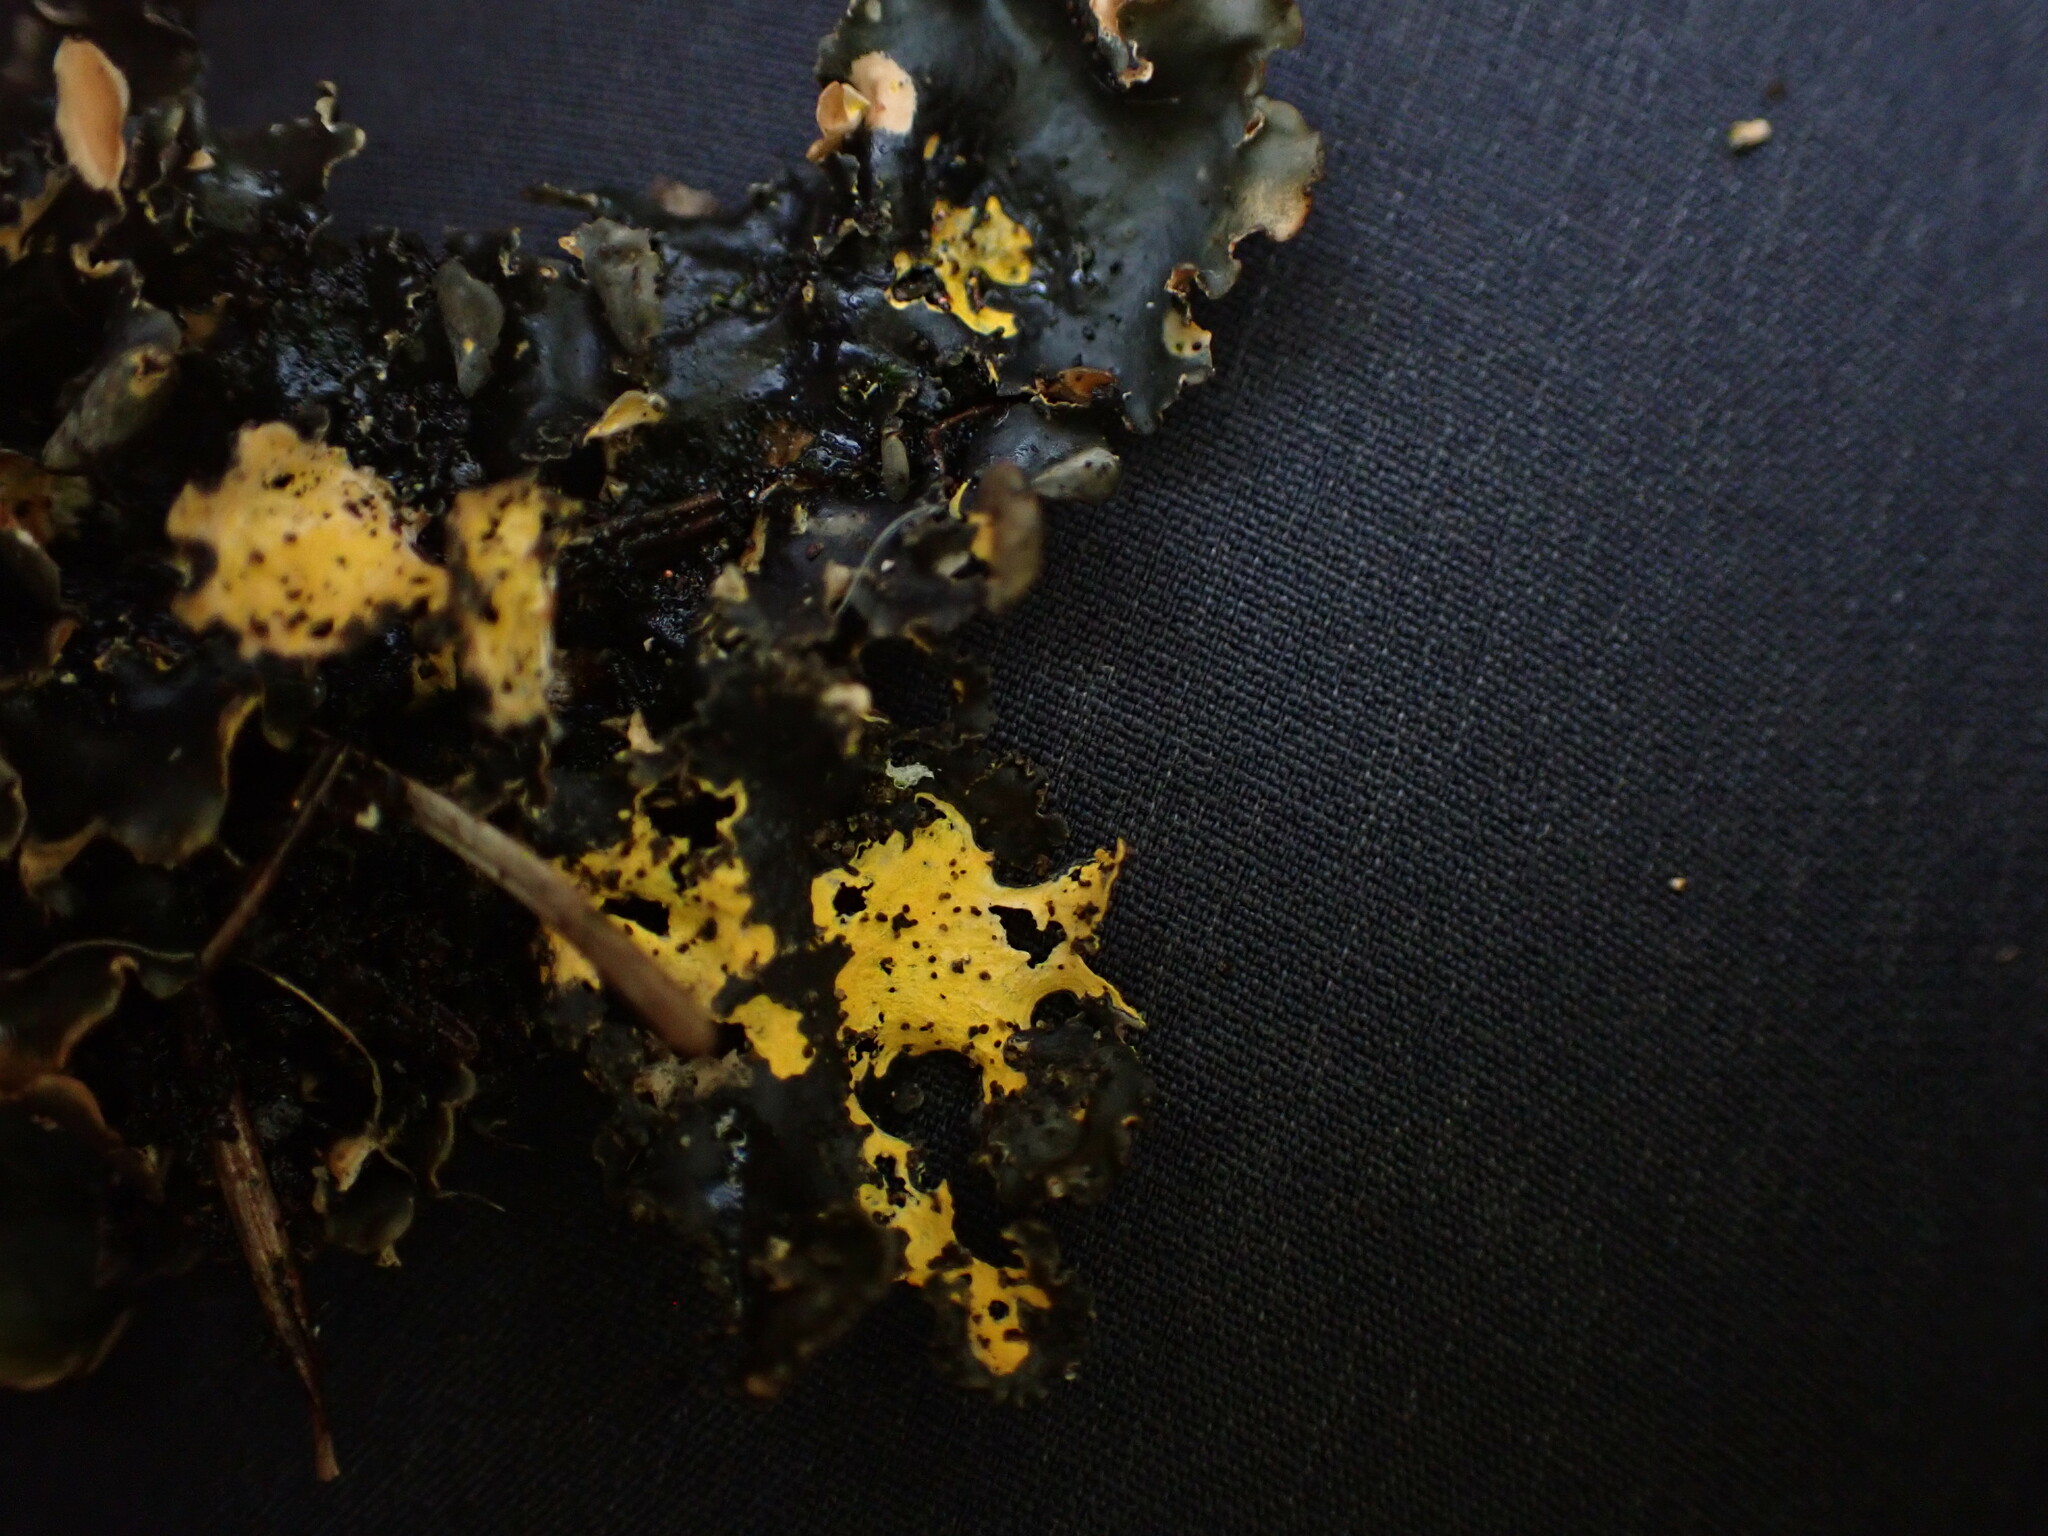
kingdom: Fungi
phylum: Ascomycota
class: Lecanoromycetes
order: Peltigerales
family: Nephromataceae
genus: Nephroma
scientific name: Nephroma laevigatum
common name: Mustard kidney lichen
